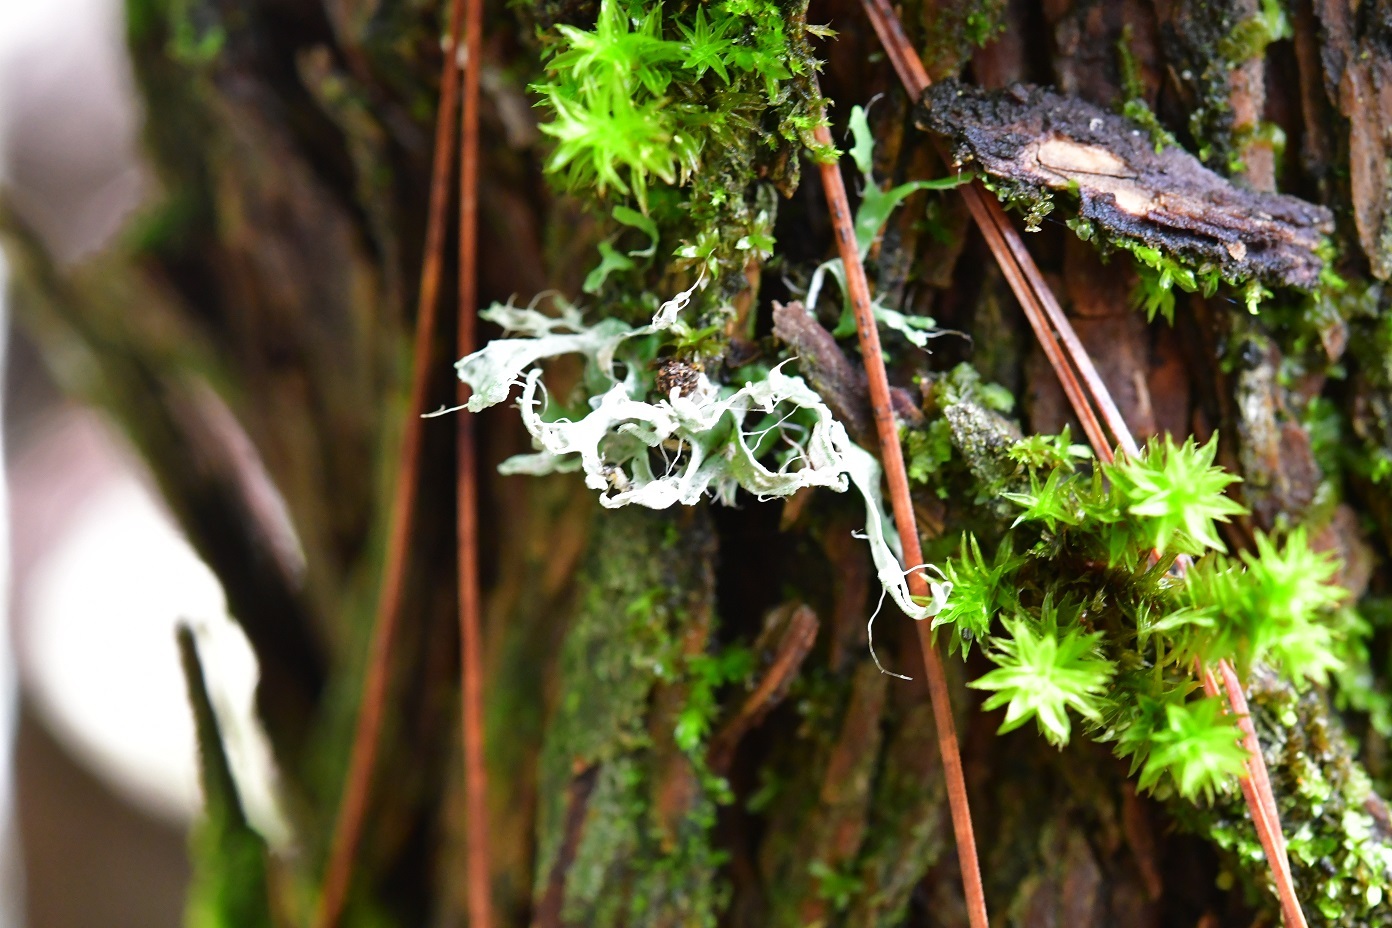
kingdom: Fungi
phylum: Ascomycota
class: Lecanoromycetes
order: Caliciales
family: Physciaceae
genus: Leucodermia
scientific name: Leucodermia leucomelos
